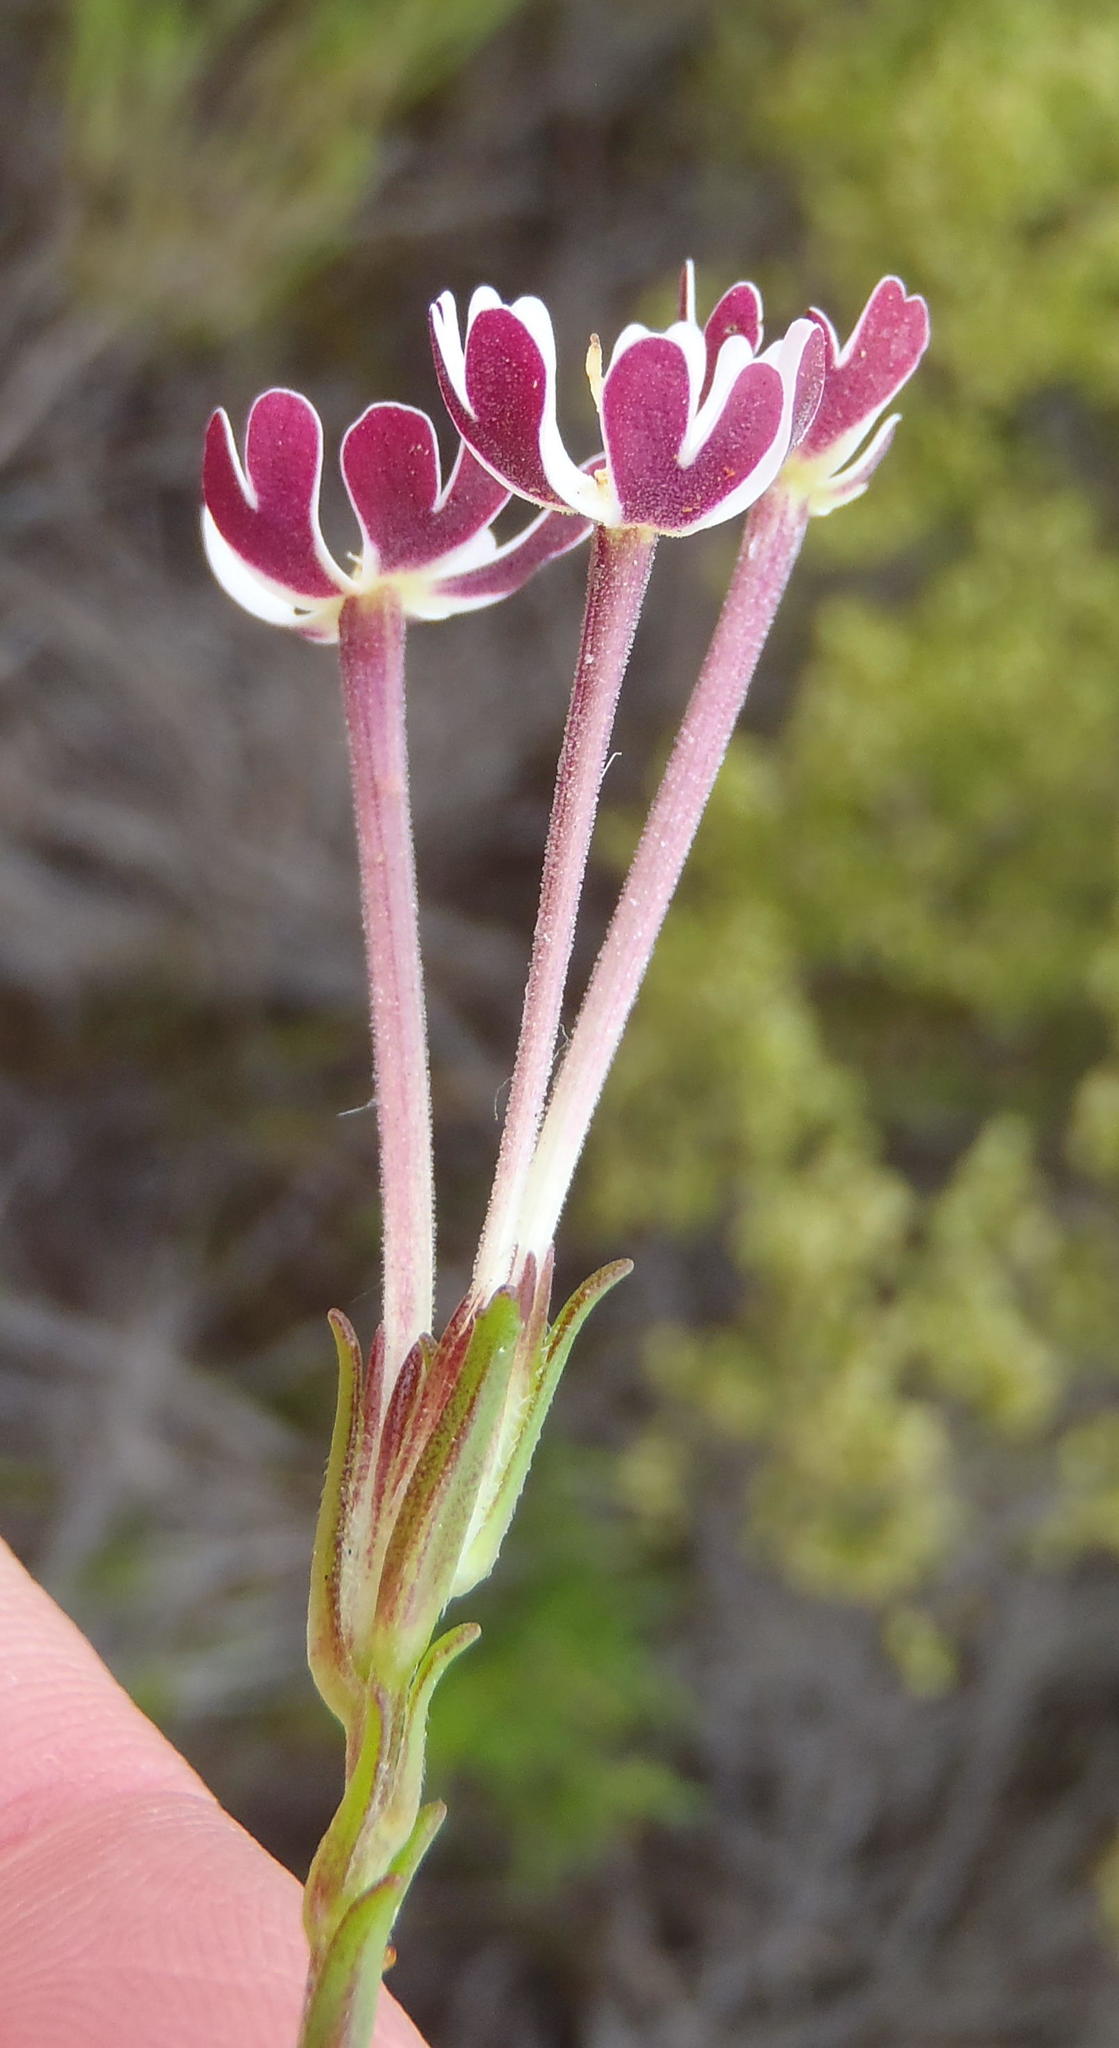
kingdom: Plantae
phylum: Tracheophyta
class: Magnoliopsida
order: Lamiales
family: Scrophulariaceae
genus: Zaluzianskya
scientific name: Zaluzianskya capensis
